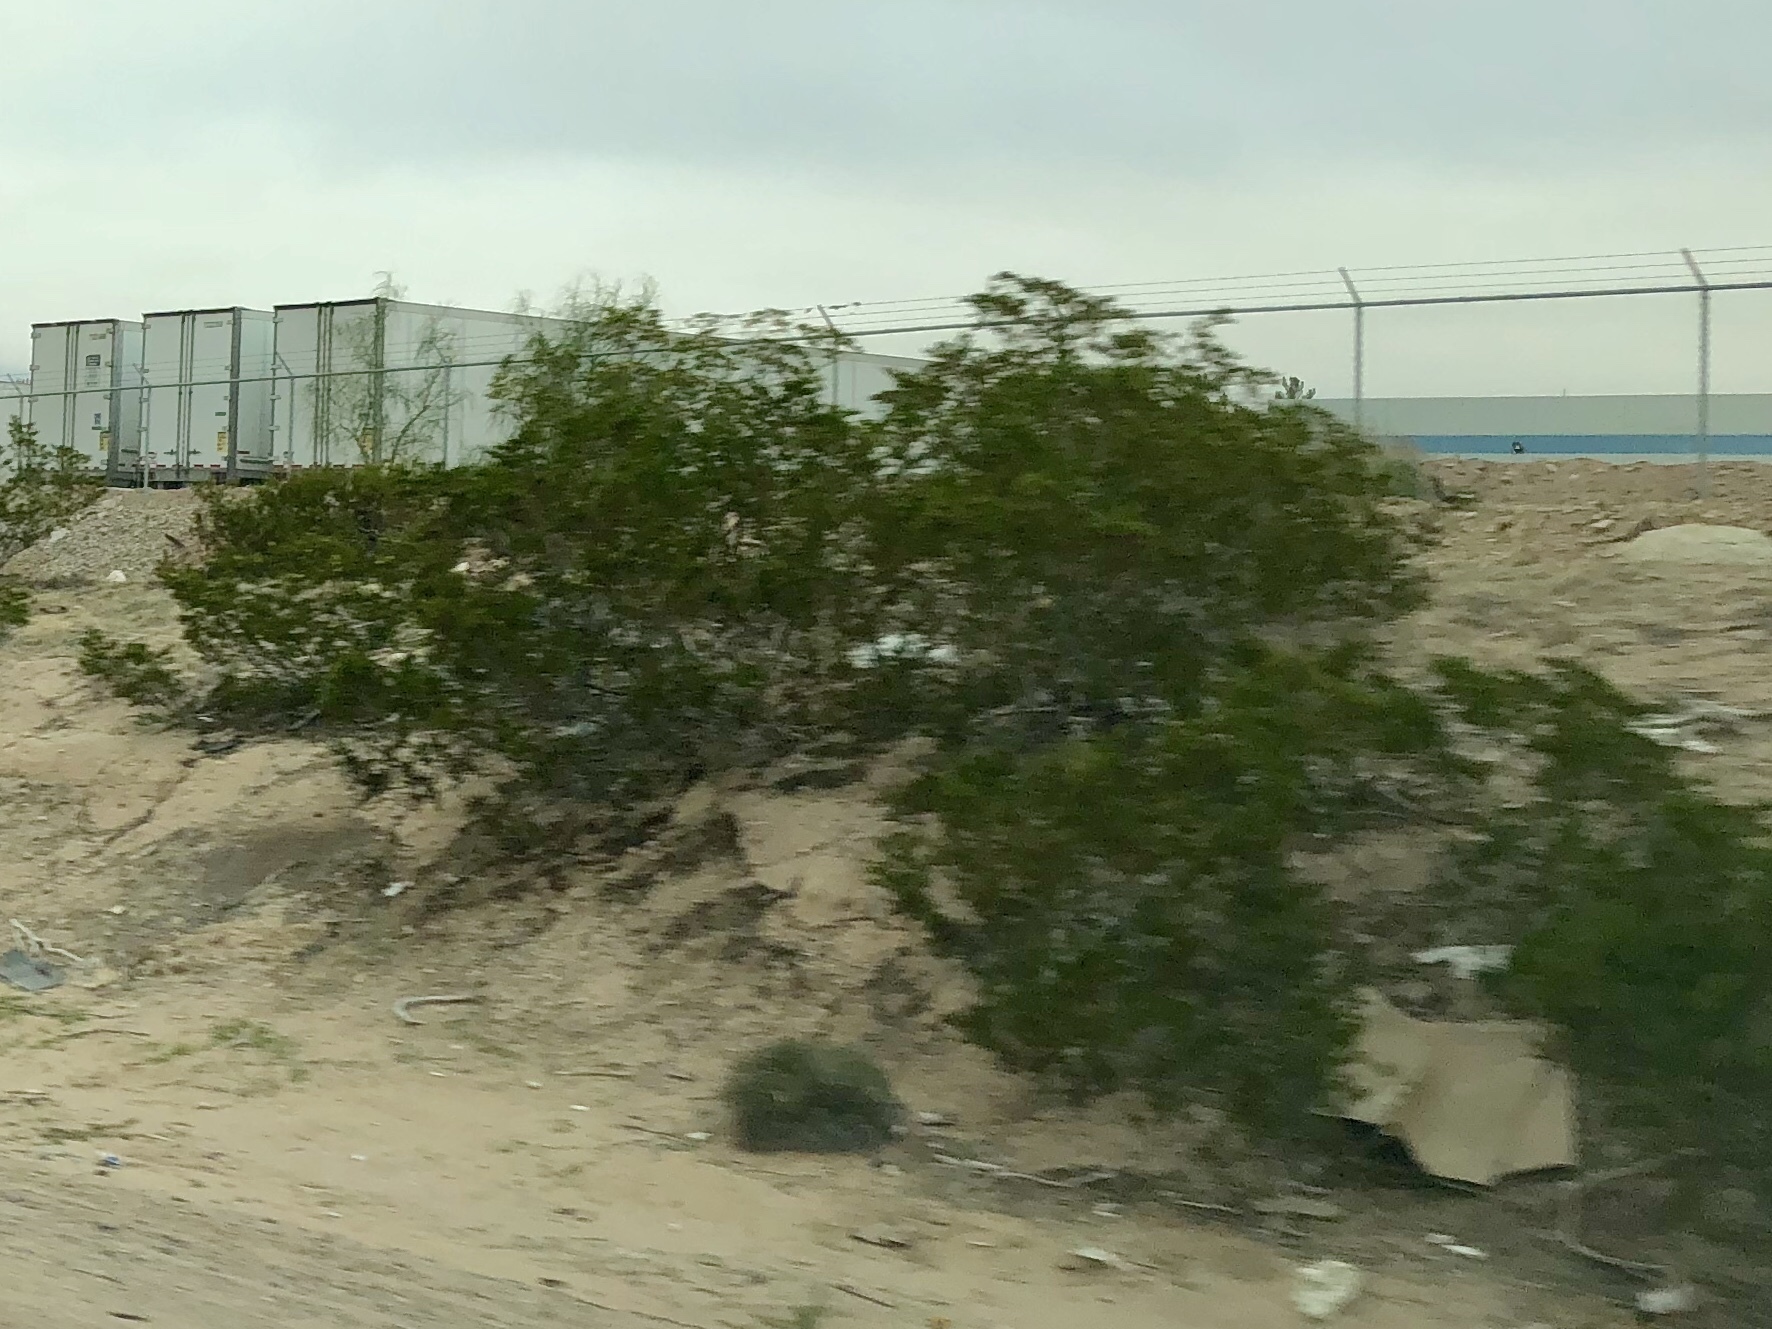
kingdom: Plantae
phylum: Tracheophyta
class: Magnoliopsida
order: Zygophyllales
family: Zygophyllaceae
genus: Larrea
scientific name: Larrea tridentata
